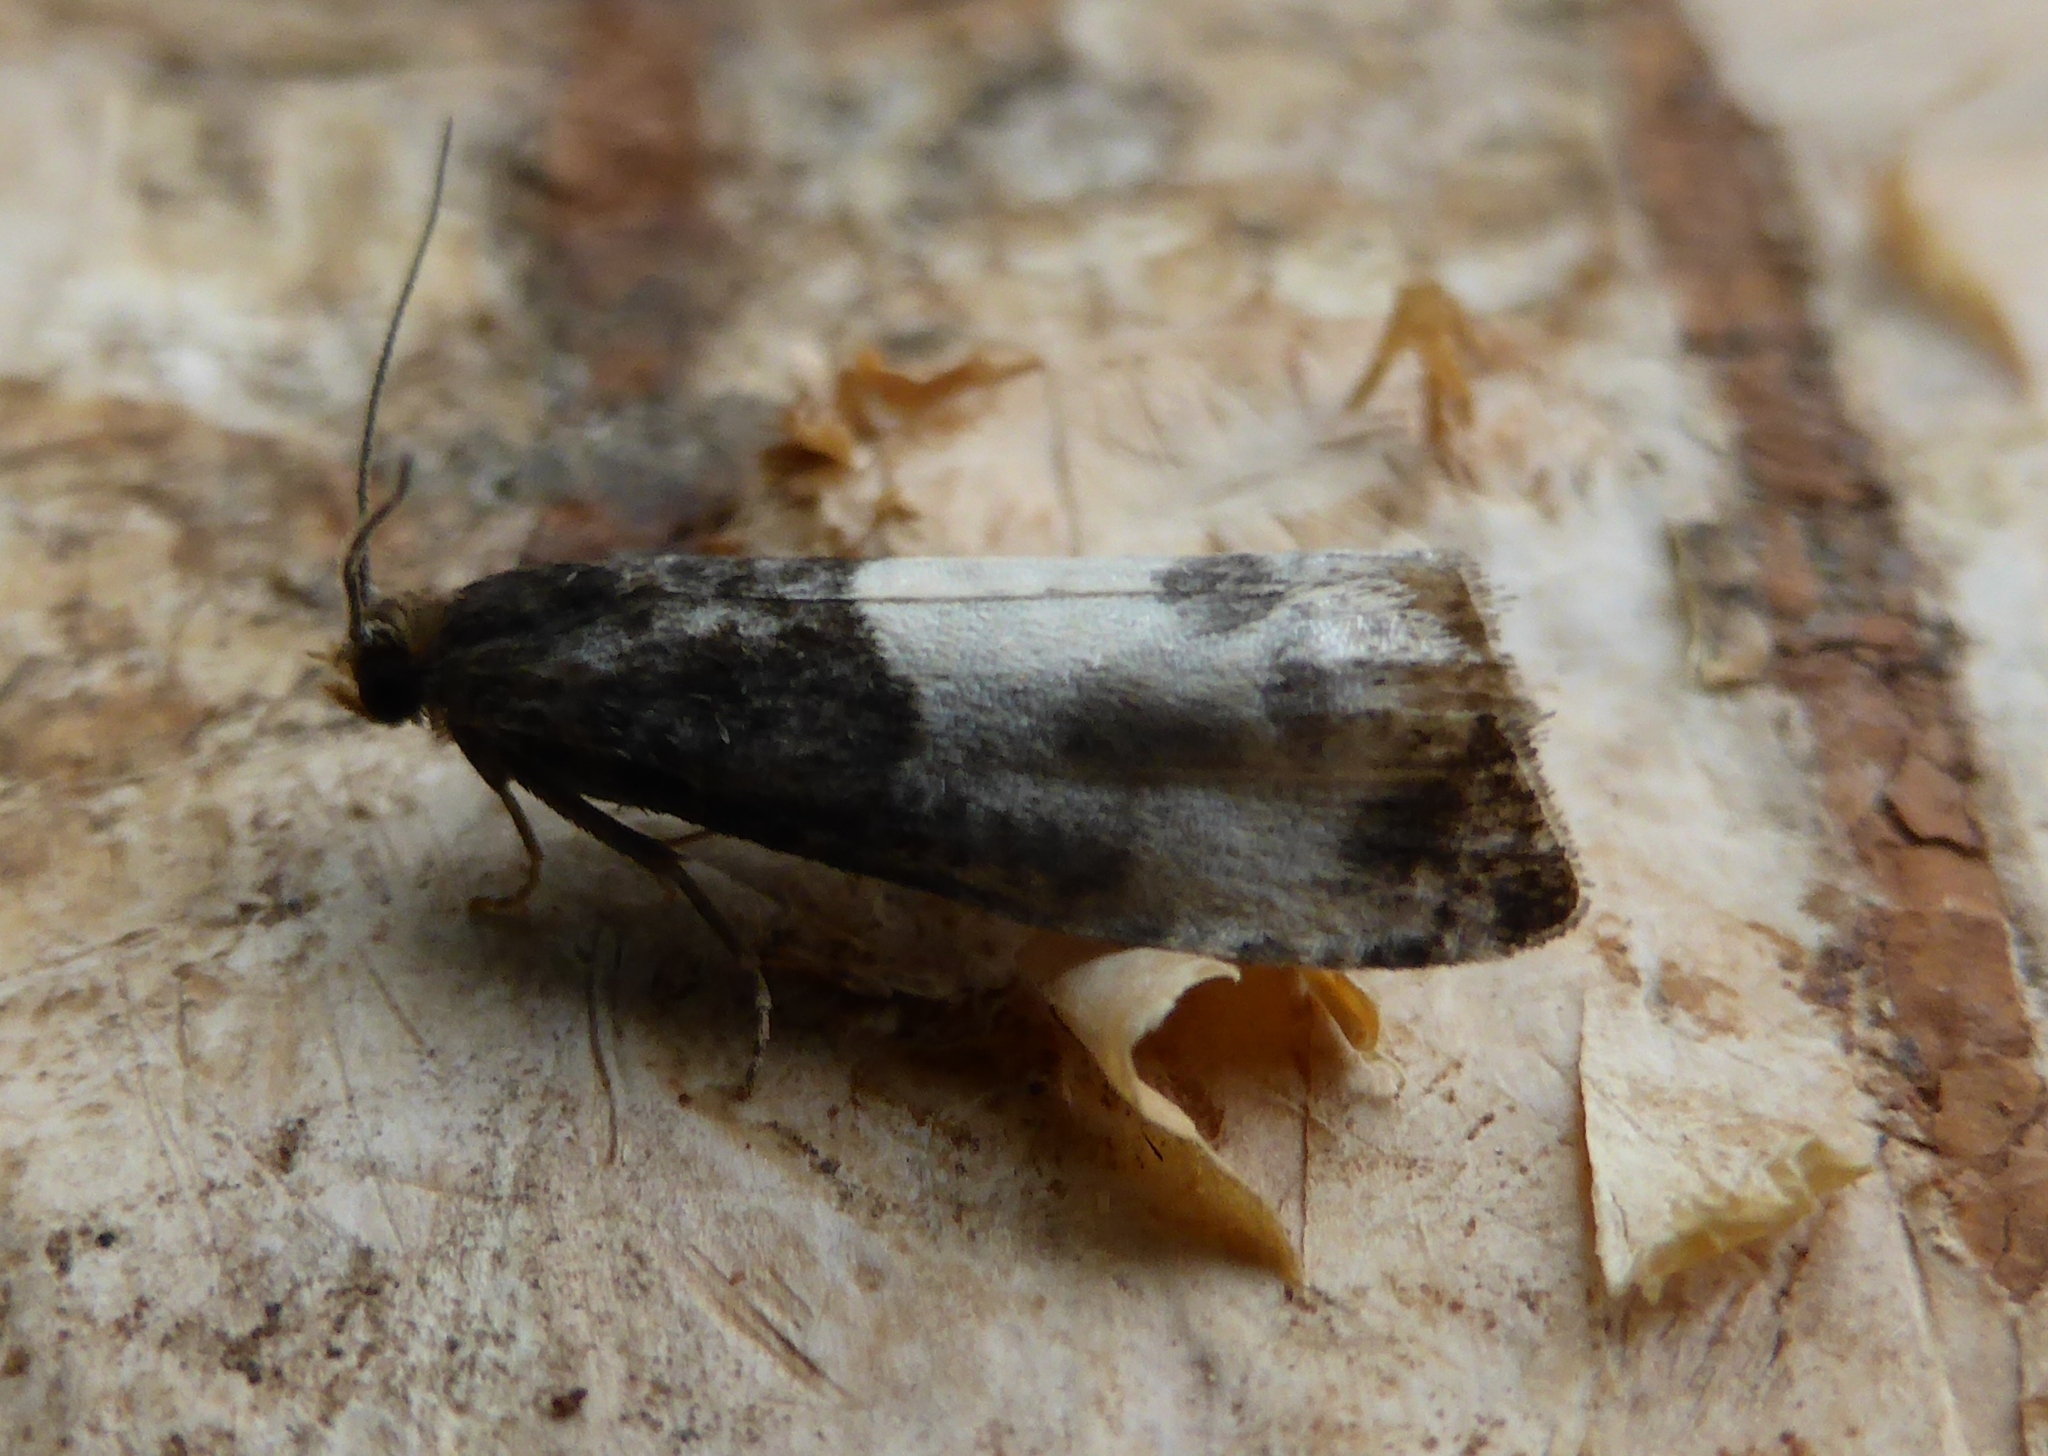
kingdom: Animalia
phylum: Arthropoda
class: Insecta
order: Lepidoptera
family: Tortricidae
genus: Notocelia
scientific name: Notocelia cynosbatella
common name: Yellow-faced bell moth
